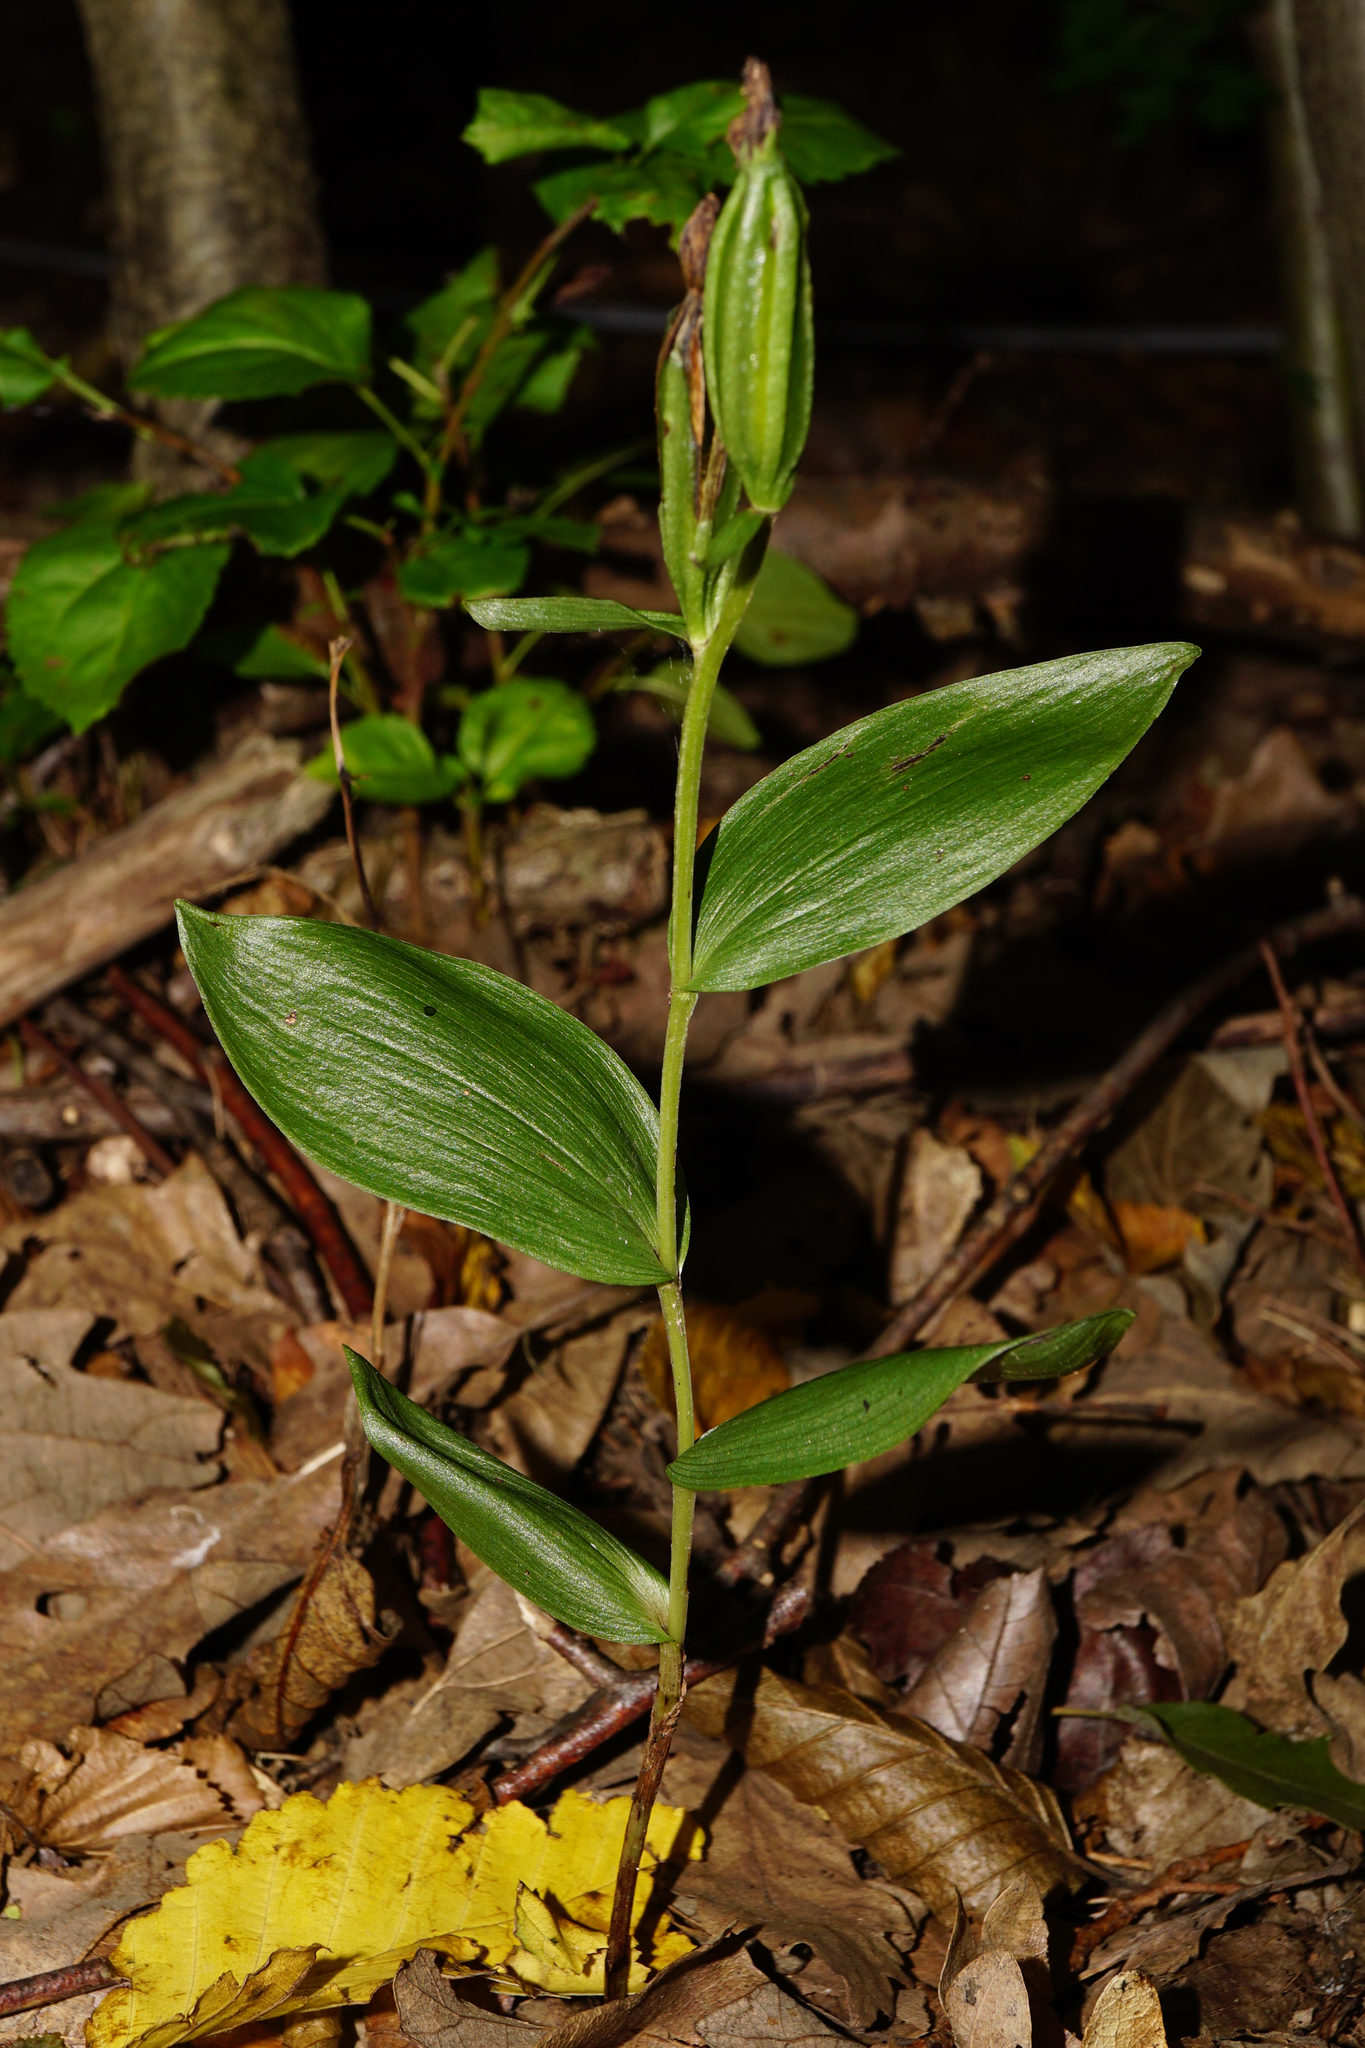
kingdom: Plantae
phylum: Tracheophyta
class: Liliopsida
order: Asparagales
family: Orchidaceae
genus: Cephalanthera
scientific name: Cephalanthera damasonium
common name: White helleborine
